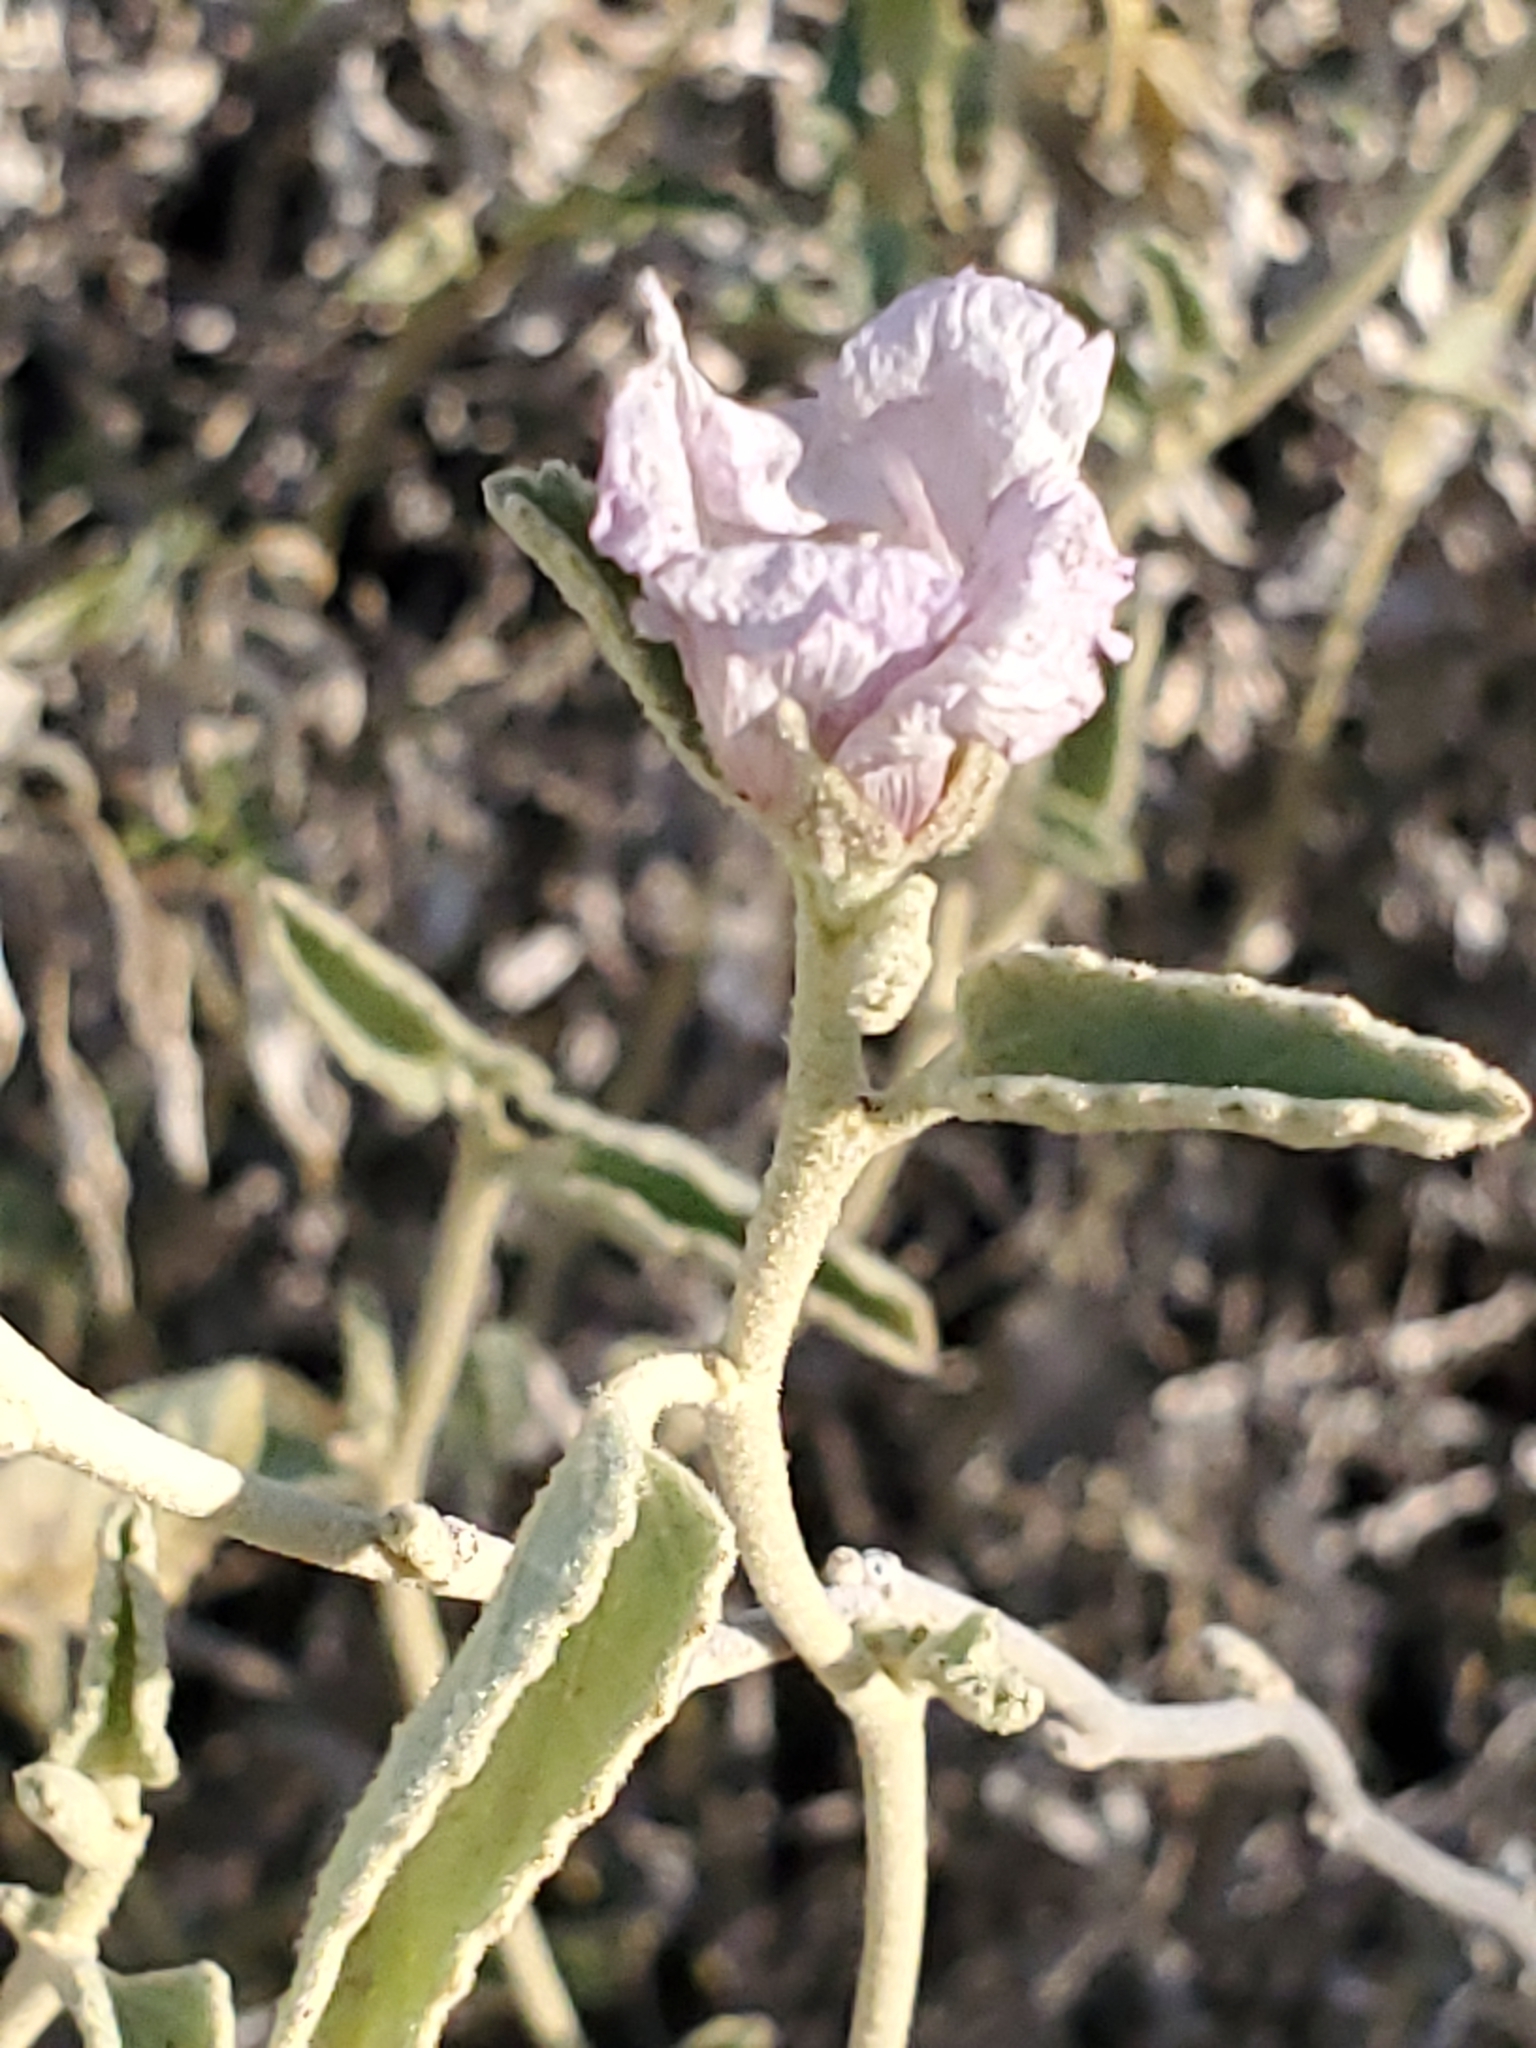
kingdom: Plantae
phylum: Tracheophyta
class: Magnoliopsida
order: Malvales
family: Malvaceae
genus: Hibiscus
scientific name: Hibiscus denudatus
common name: Paleface
